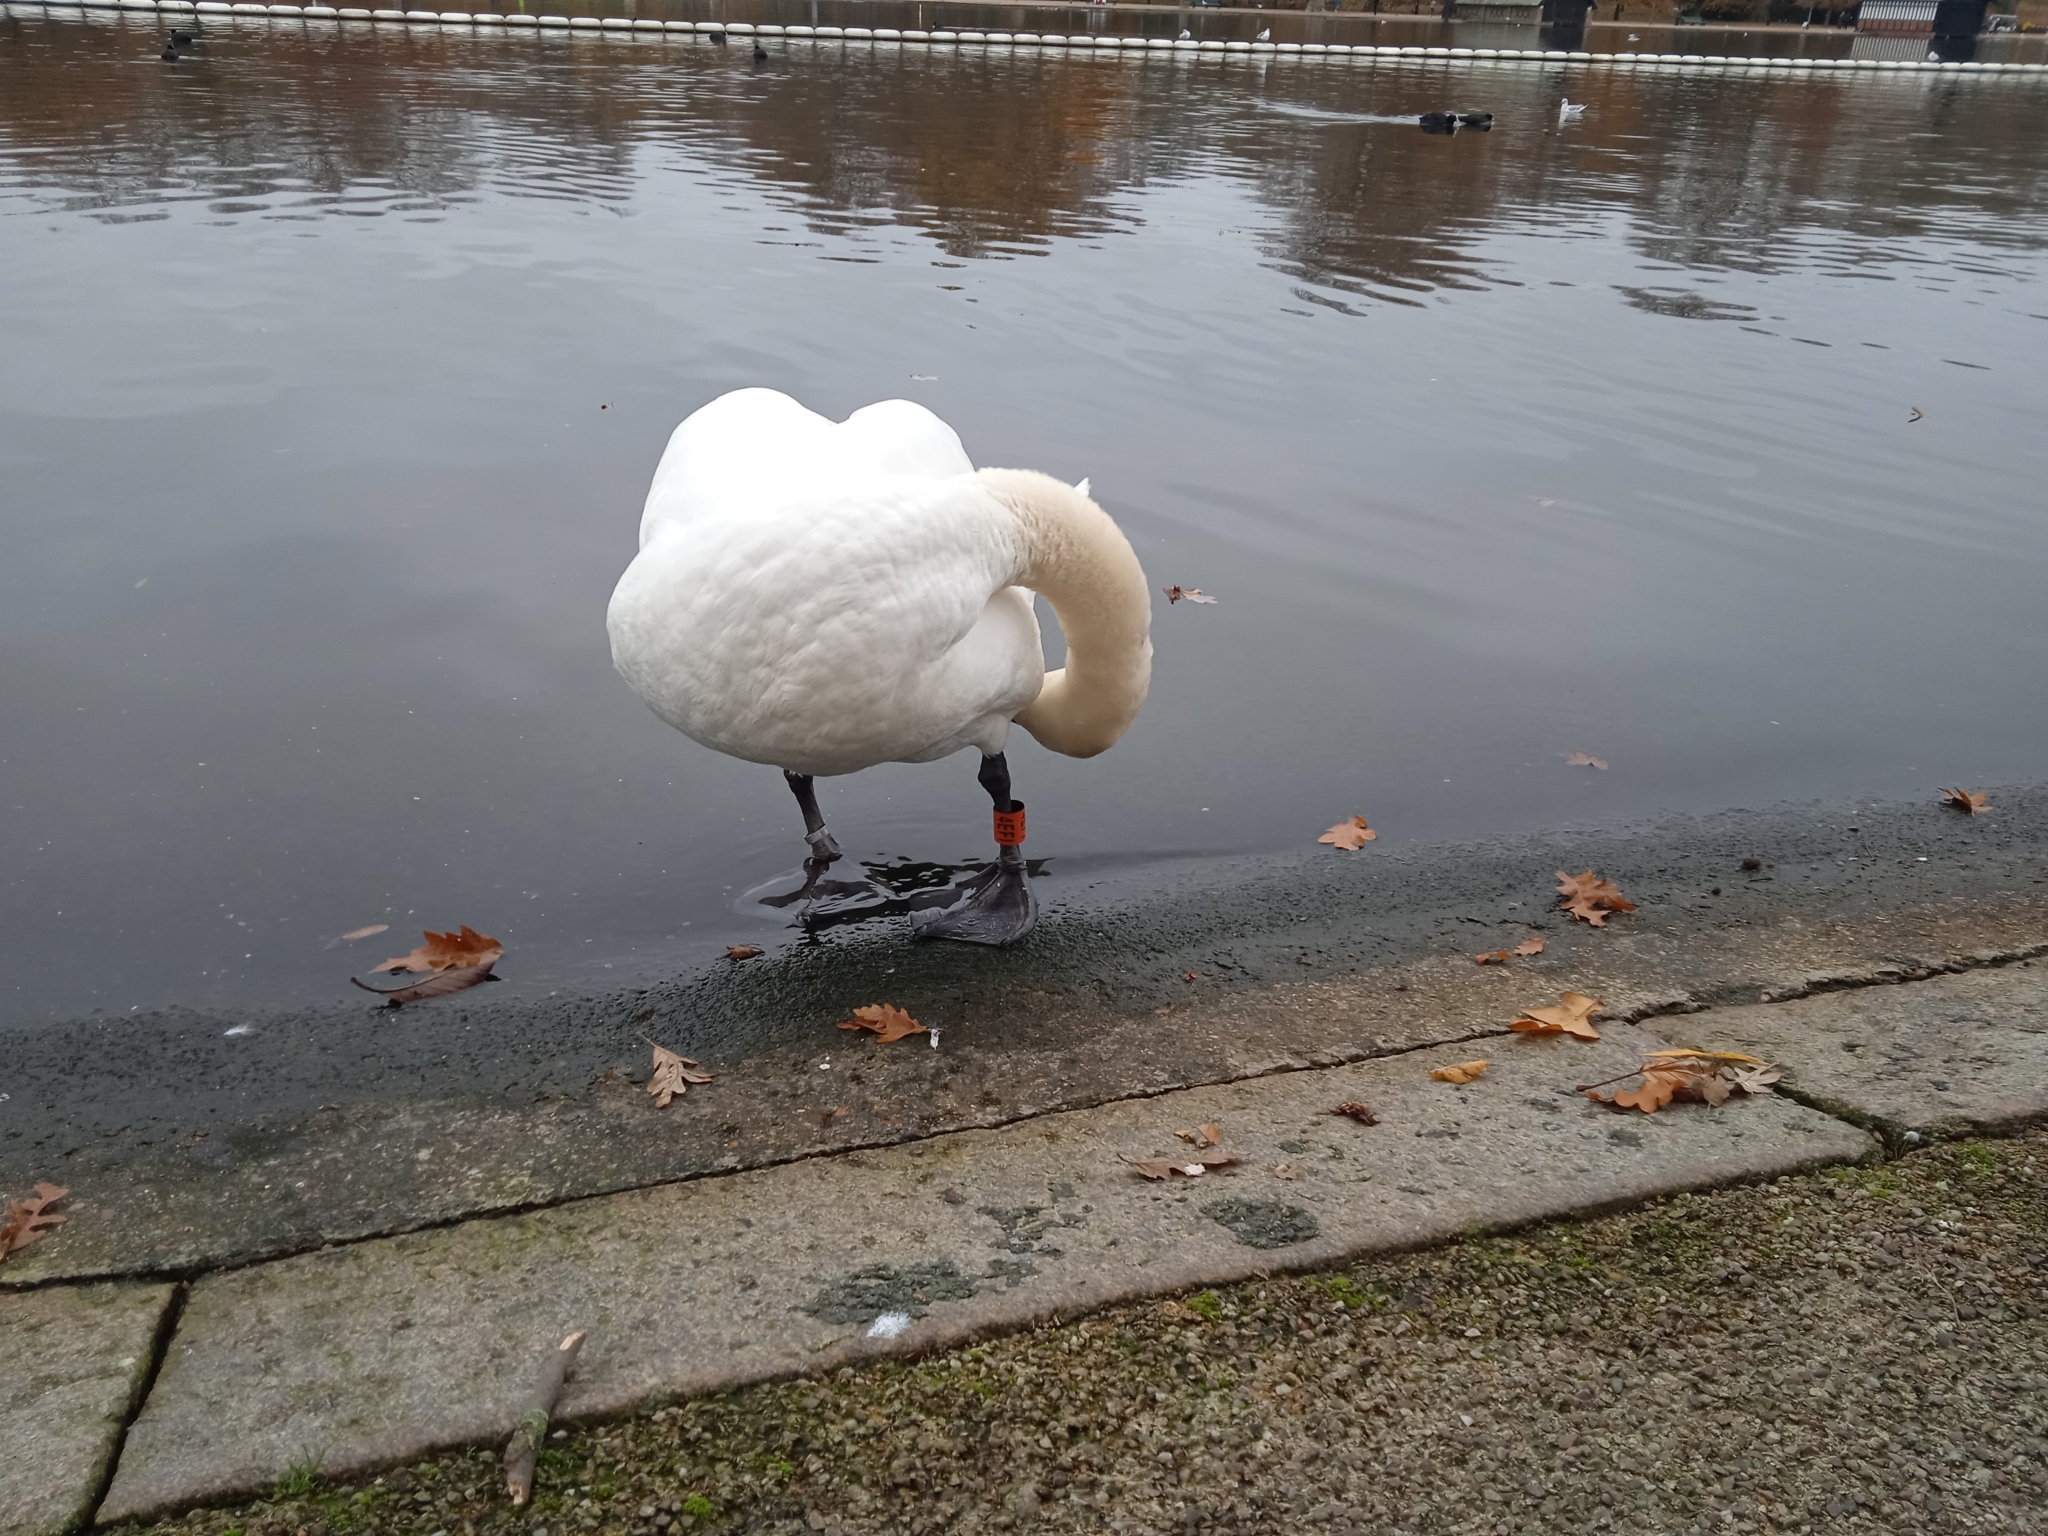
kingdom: Animalia
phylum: Chordata
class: Aves
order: Anseriformes
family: Anatidae
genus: Cygnus
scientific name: Cygnus olor
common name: Mute swan
